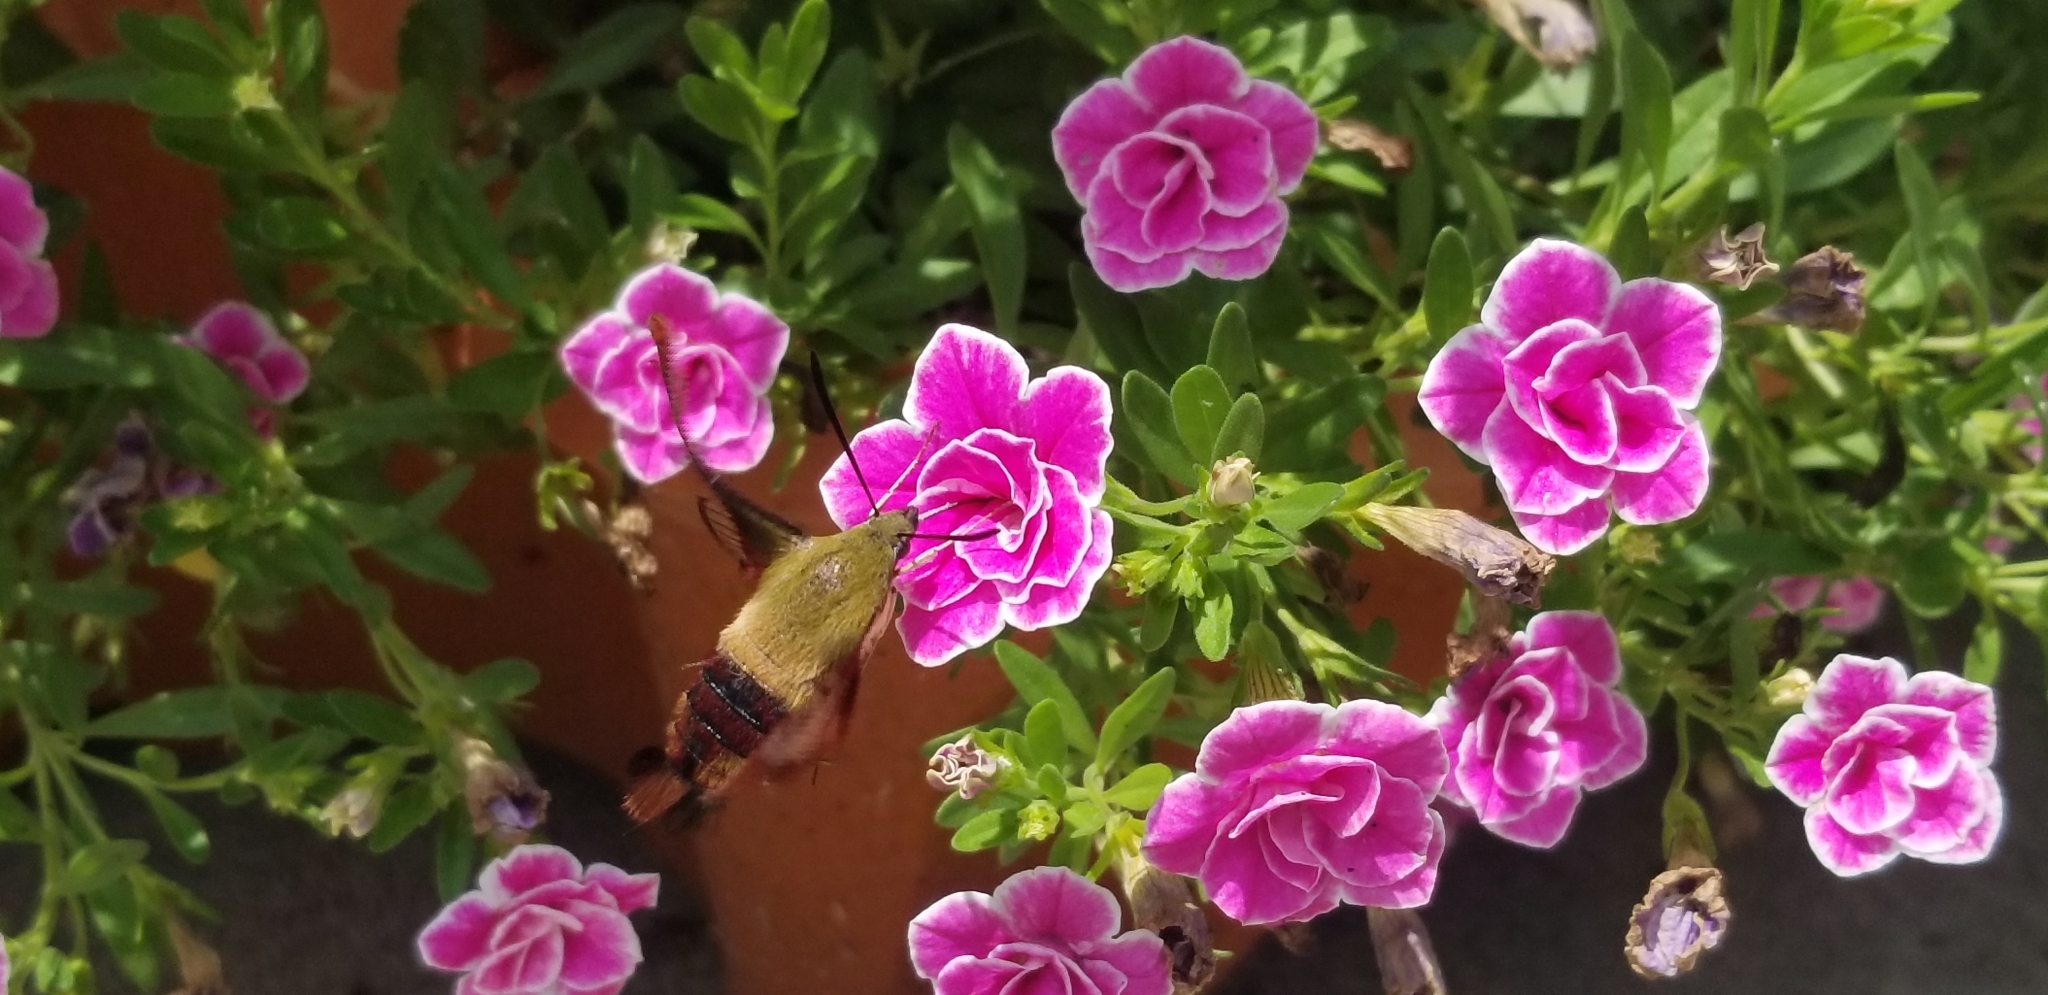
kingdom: Animalia
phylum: Arthropoda
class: Insecta
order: Lepidoptera
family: Sphingidae
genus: Hemaris
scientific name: Hemaris thysbe
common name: Common clear-wing
